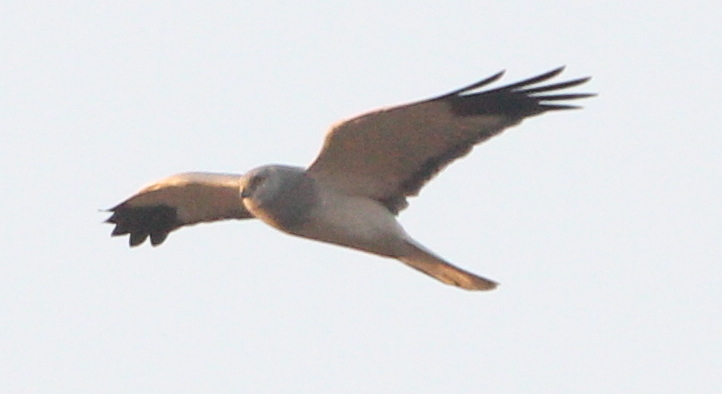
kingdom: Animalia
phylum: Chordata
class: Aves
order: Accipitriformes
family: Accipitridae
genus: Circus
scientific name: Circus cyaneus
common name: Hen harrier
